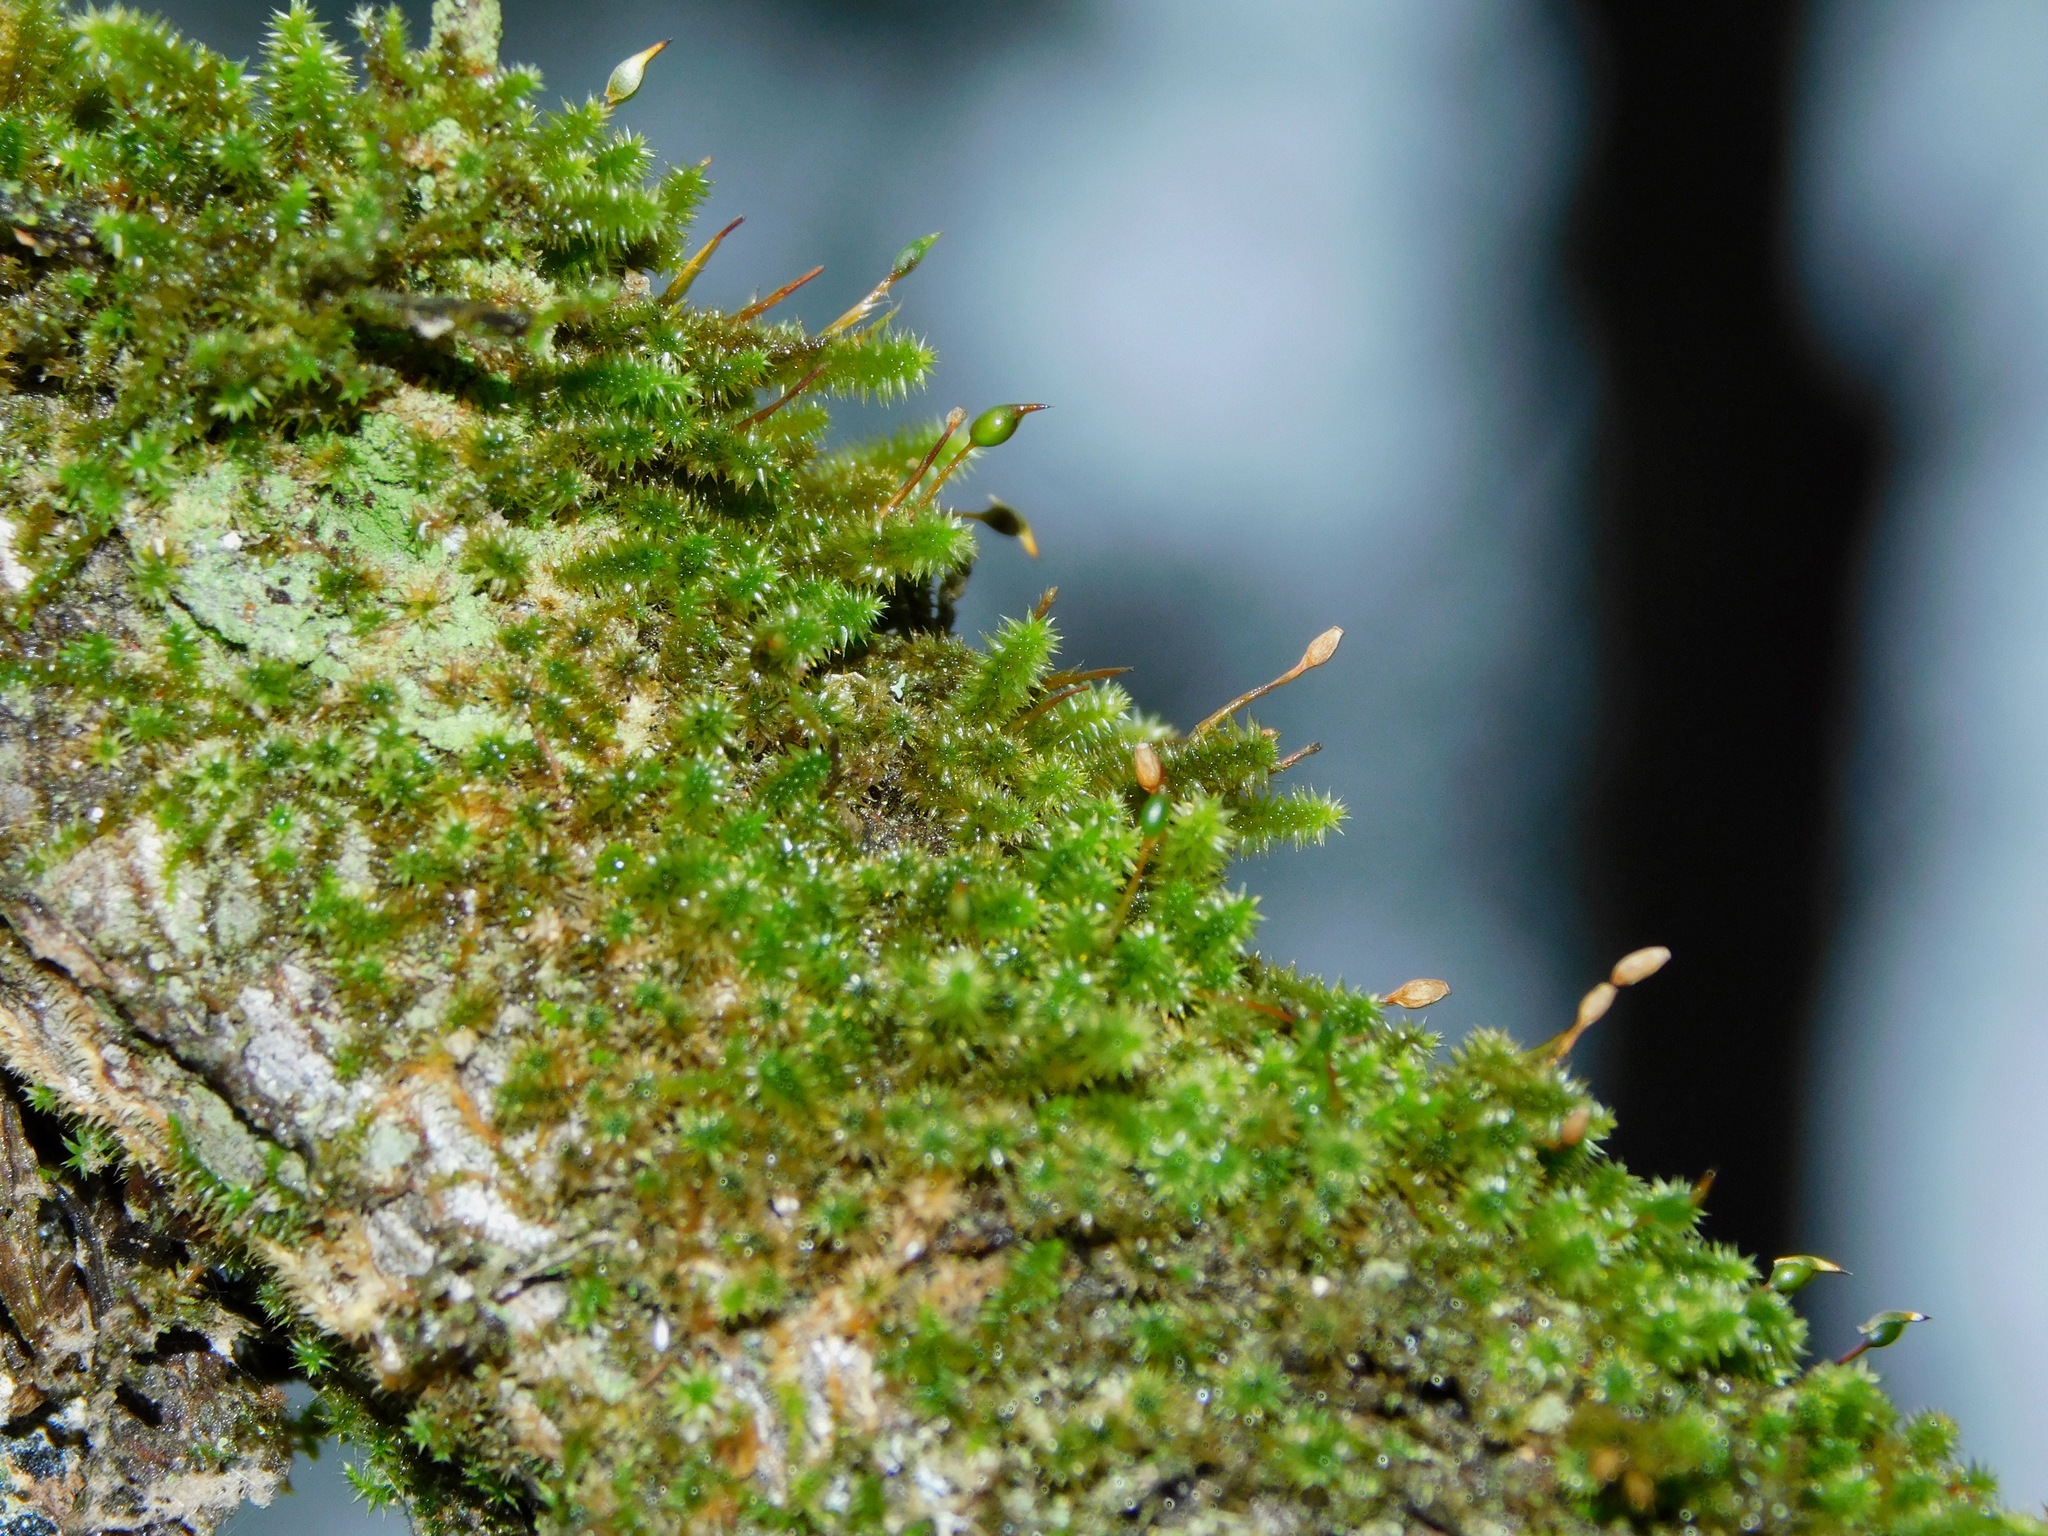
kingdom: Plantae
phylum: Bryophyta
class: Bryopsida
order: Hypnales
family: Leucodontaceae
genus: Leucodon
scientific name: Leucodon julaceus
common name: Smooth hook moss
